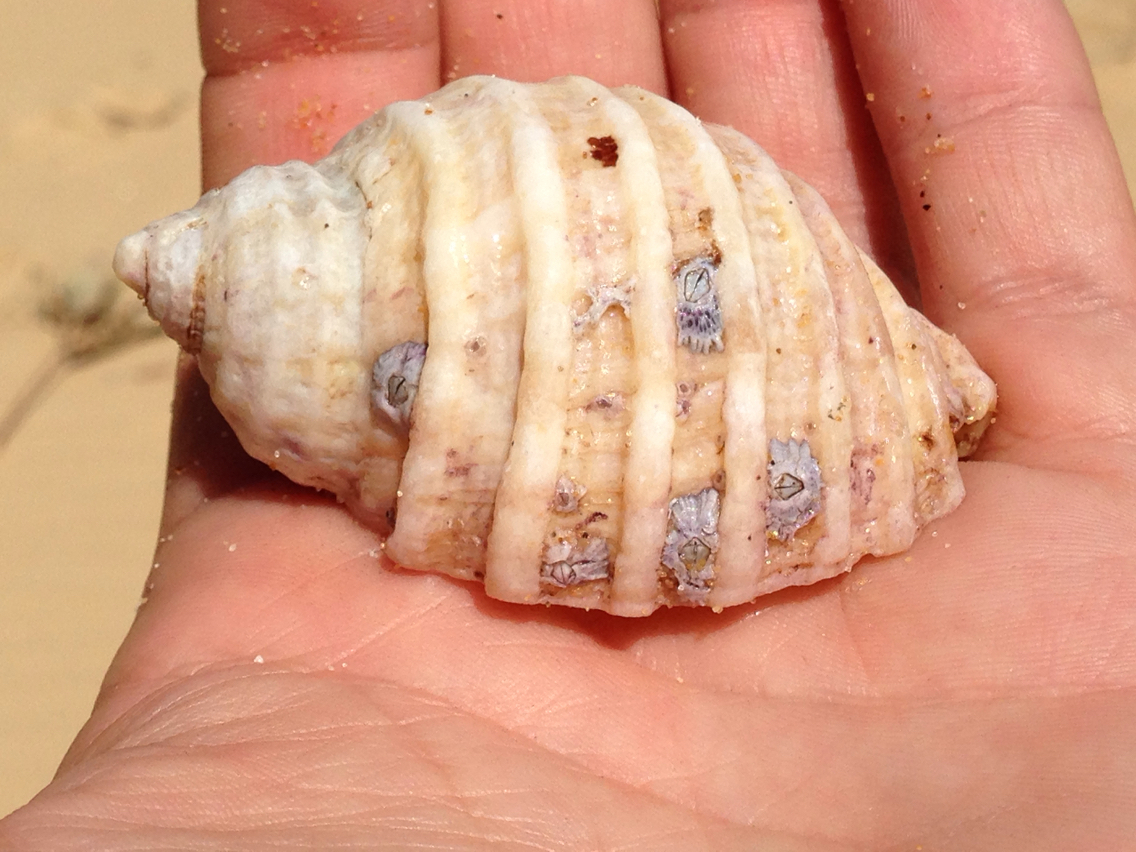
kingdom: Animalia
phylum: Mollusca
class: Gastropoda
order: Neogastropoda
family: Muricidae
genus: Dicathais
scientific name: Dicathais orbita
